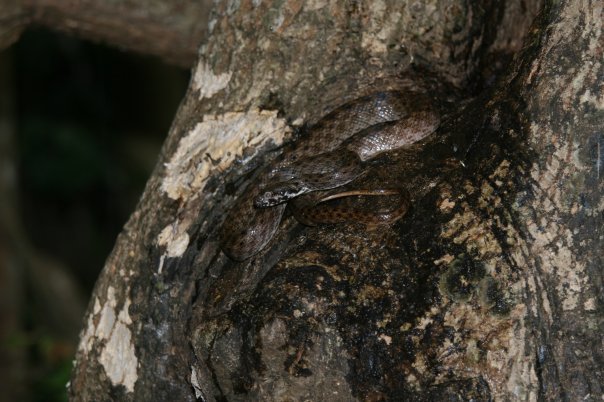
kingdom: Animalia
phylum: Chordata
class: Squamata
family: Pseudoxyrhophiidae
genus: Madagascarophis
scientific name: Madagascarophis colubrinus
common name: Madagascar night snake
